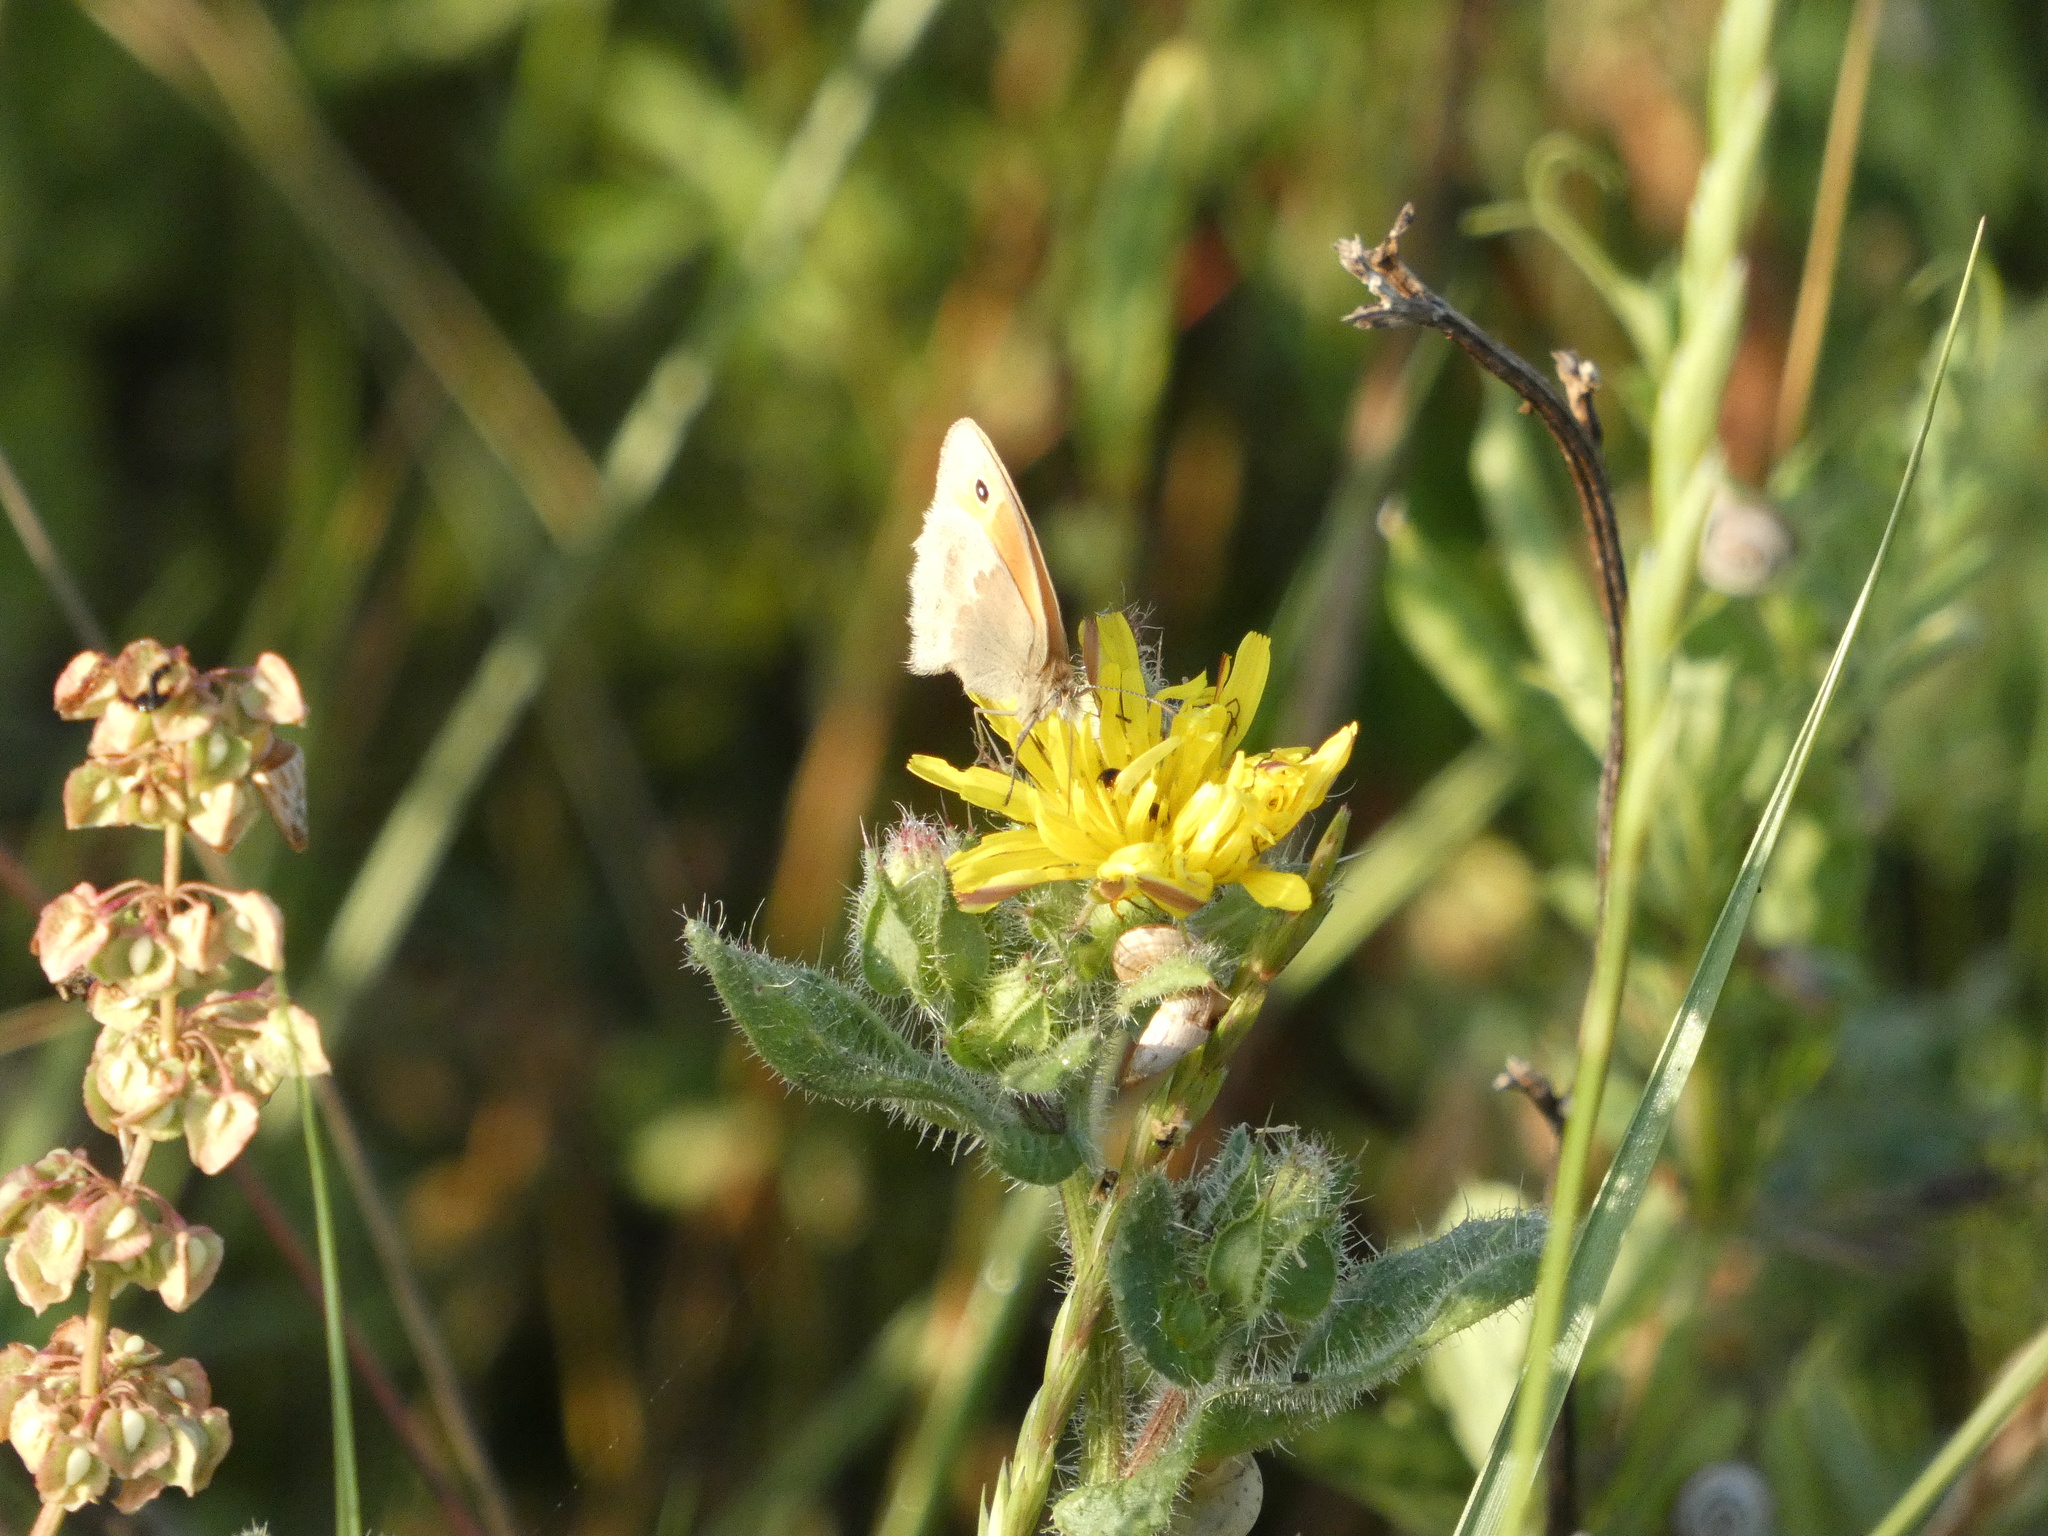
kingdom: Animalia
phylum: Arthropoda
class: Insecta
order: Lepidoptera
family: Nymphalidae
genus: Coenonympha
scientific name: Coenonympha pamphilus
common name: Small heath
